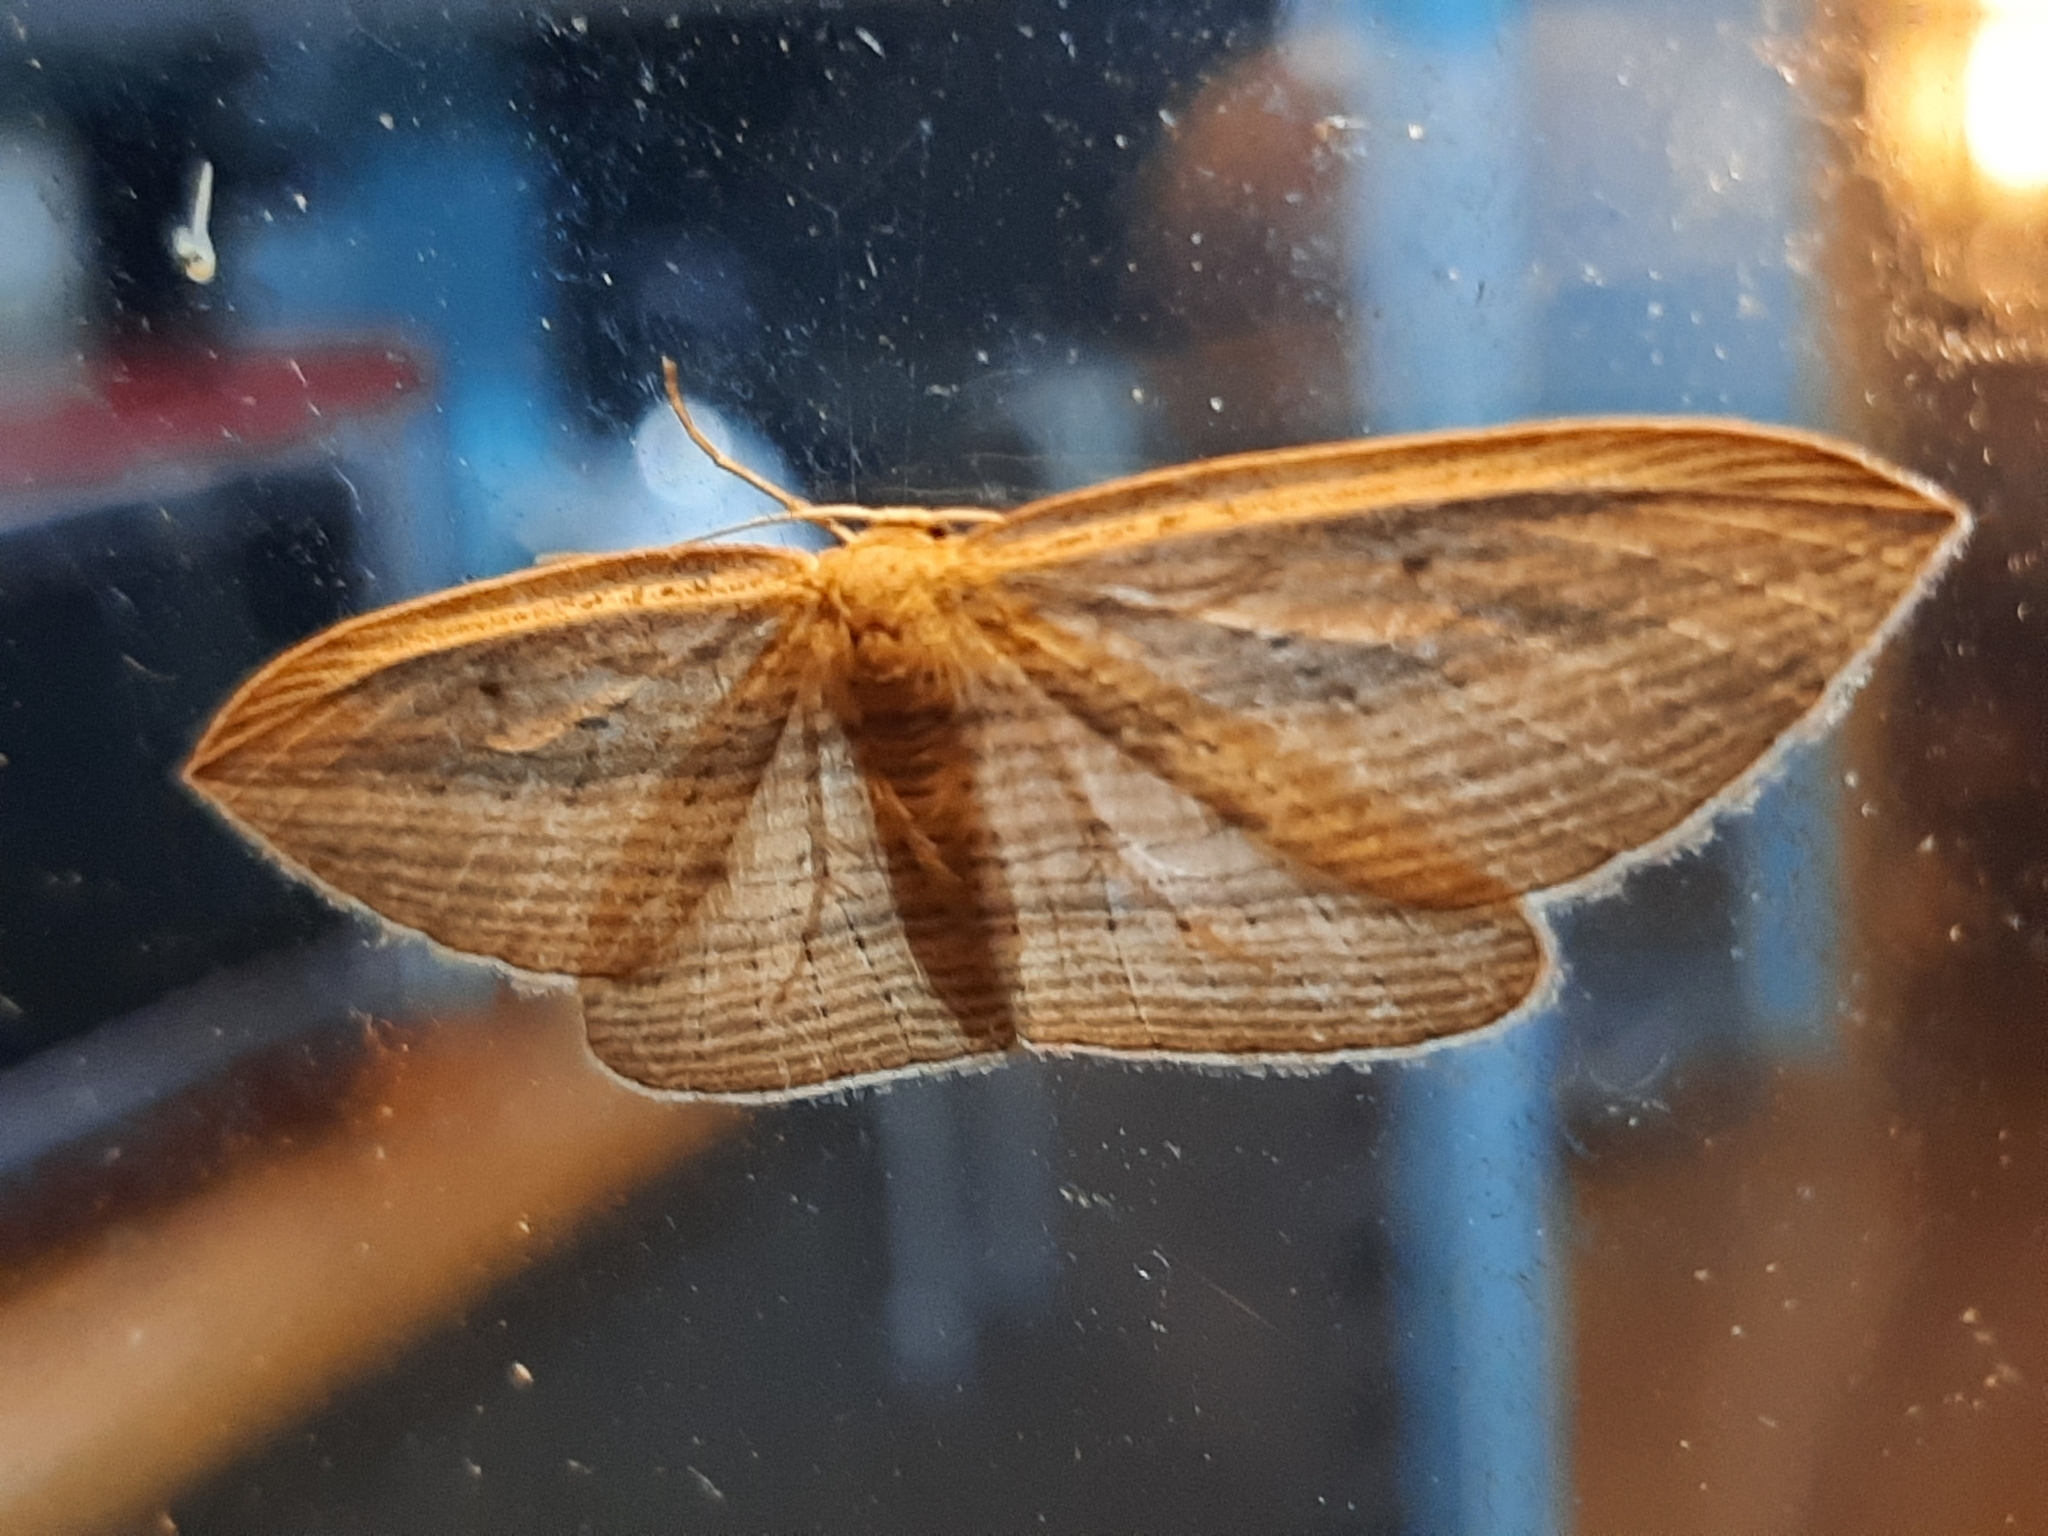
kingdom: Animalia
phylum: Arthropoda
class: Insecta
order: Lepidoptera
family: Geometridae
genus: Epiphryne
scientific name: Epiphryne verriculata
